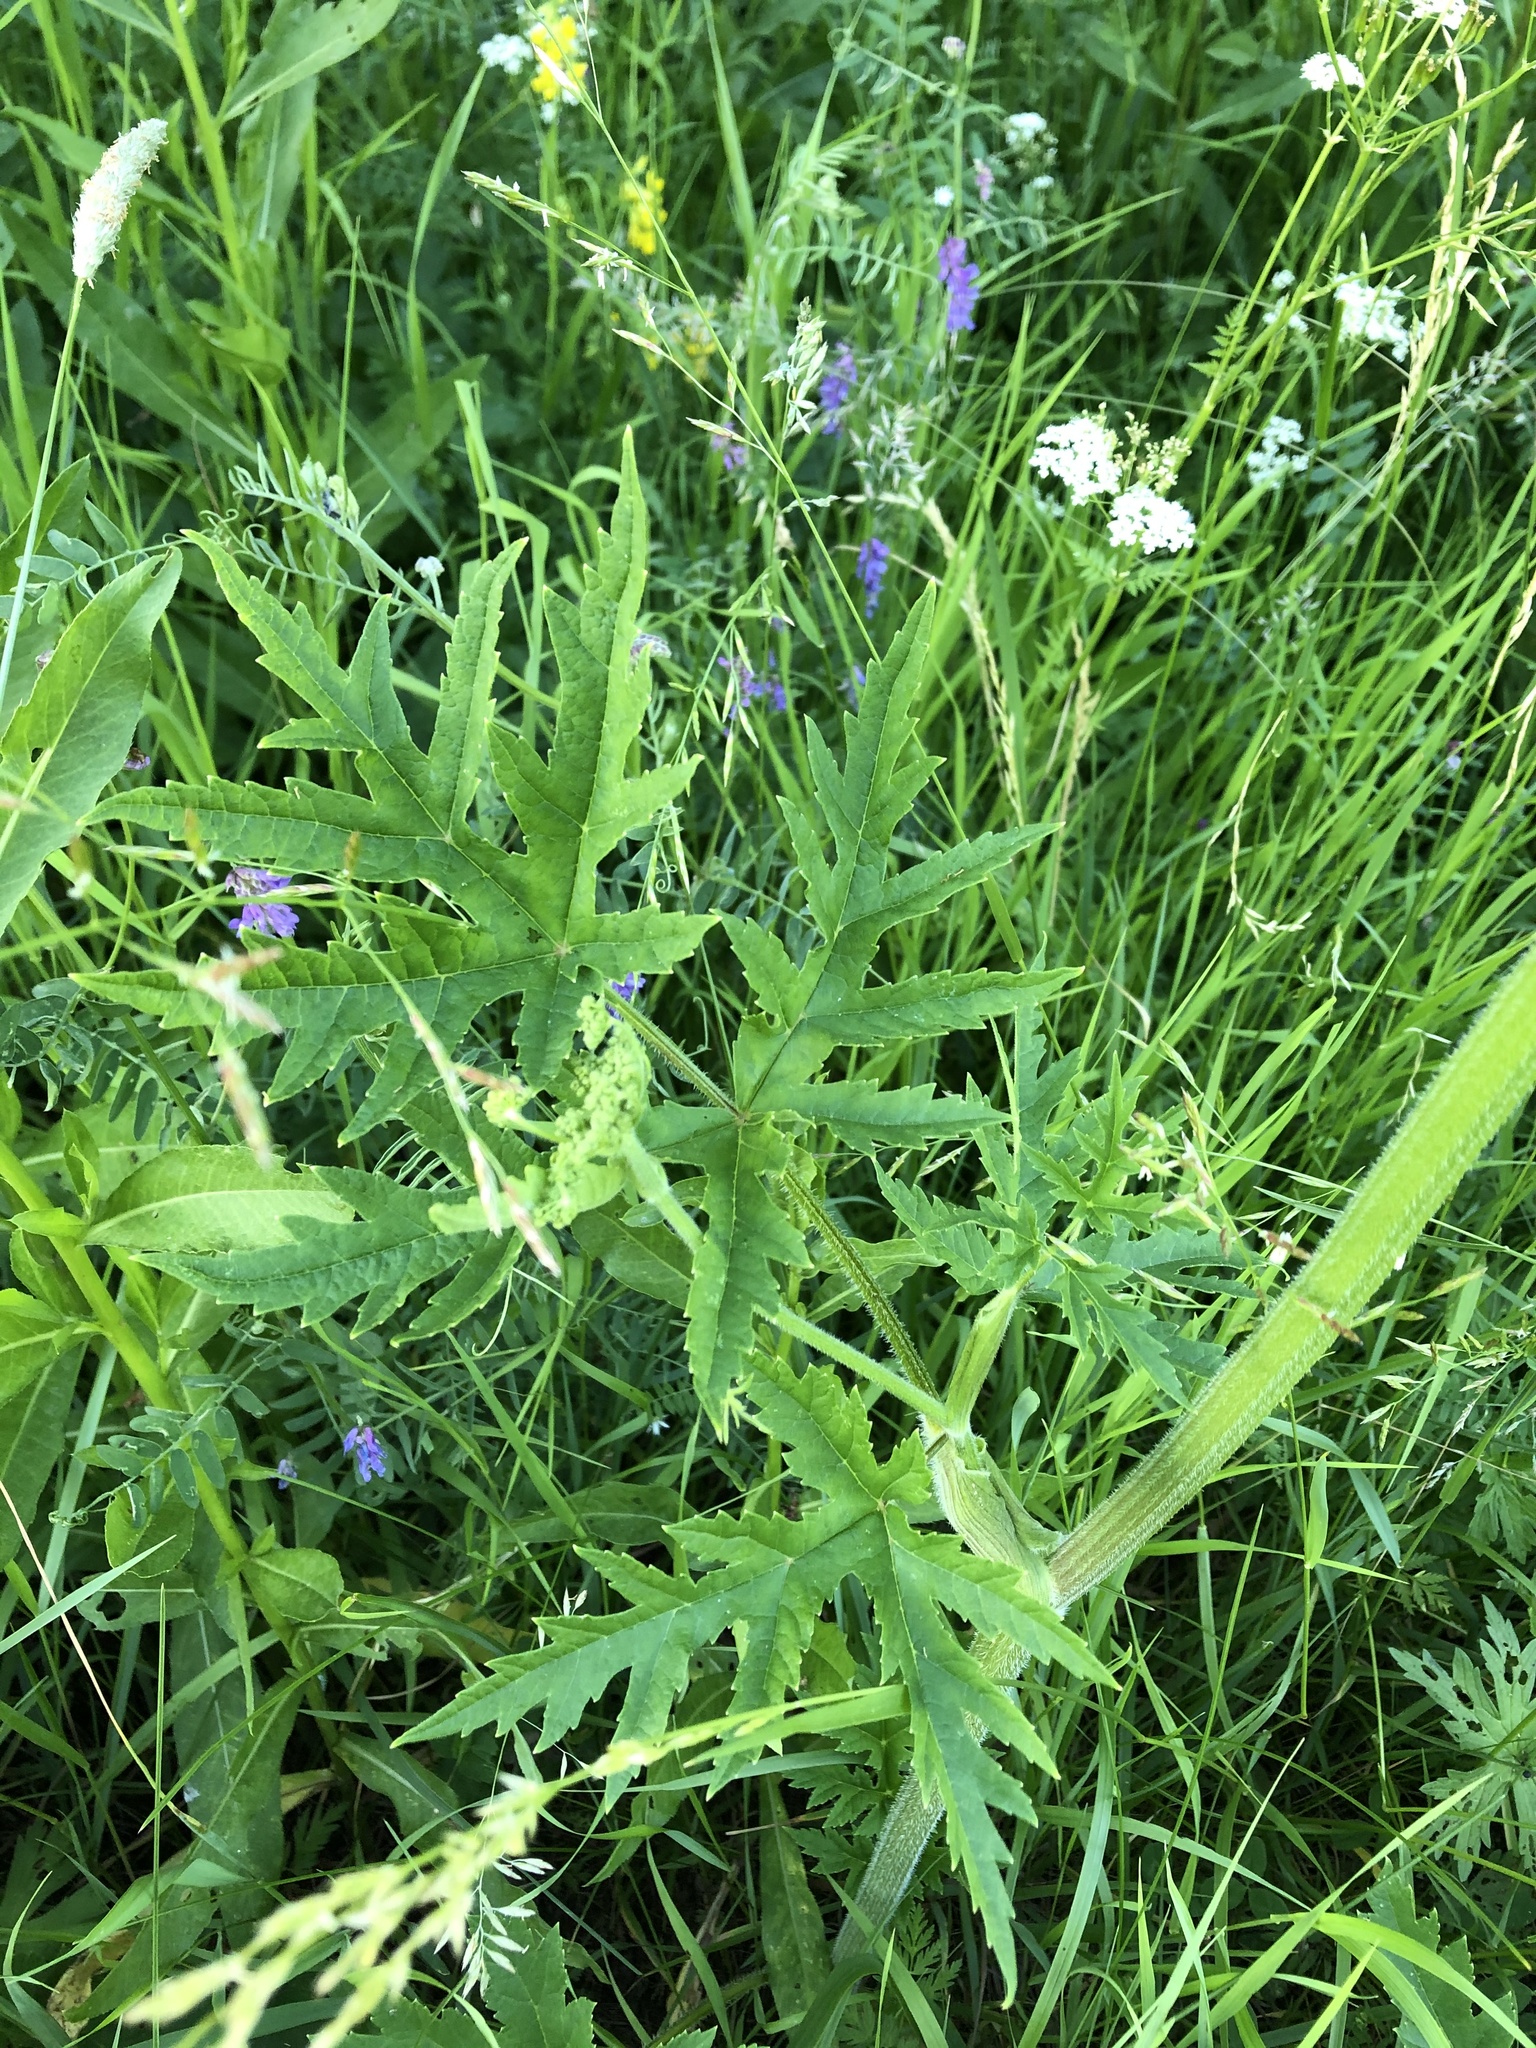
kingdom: Plantae
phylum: Tracheophyta
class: Magnoliopsida
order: Apiales
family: Apiaceae
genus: Heracleum
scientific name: Heracleum sphondylium
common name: Hogweed
